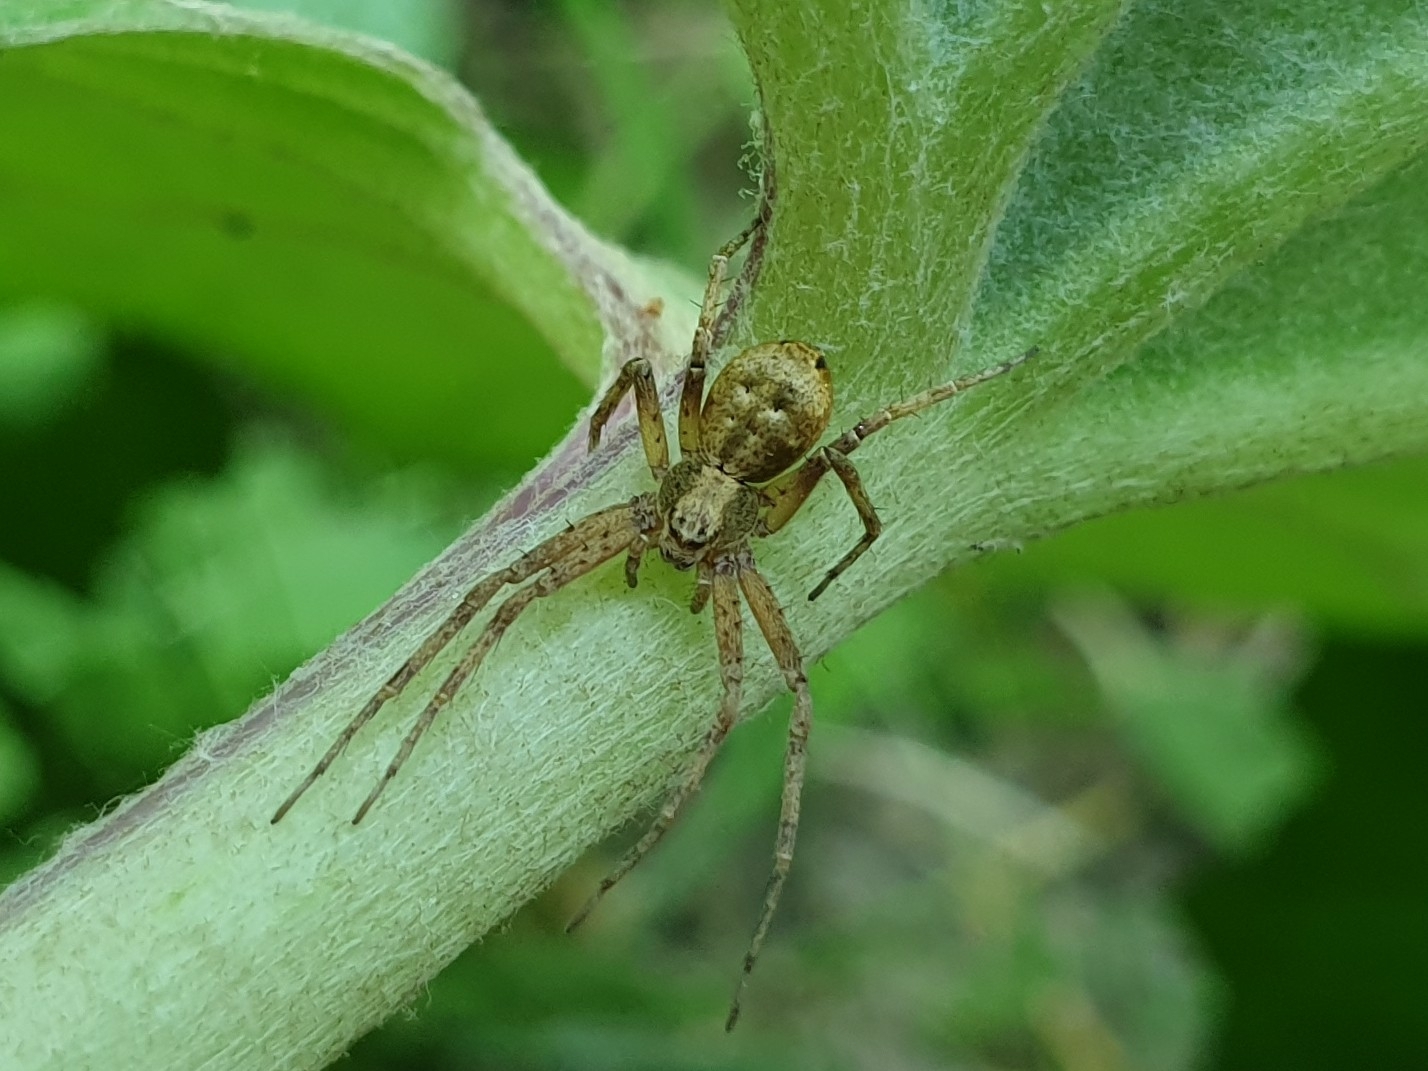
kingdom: Animalia
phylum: Arthropoda
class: Arachnida
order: Araneae
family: Philodromidae
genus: Philodromus
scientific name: Philodromus
